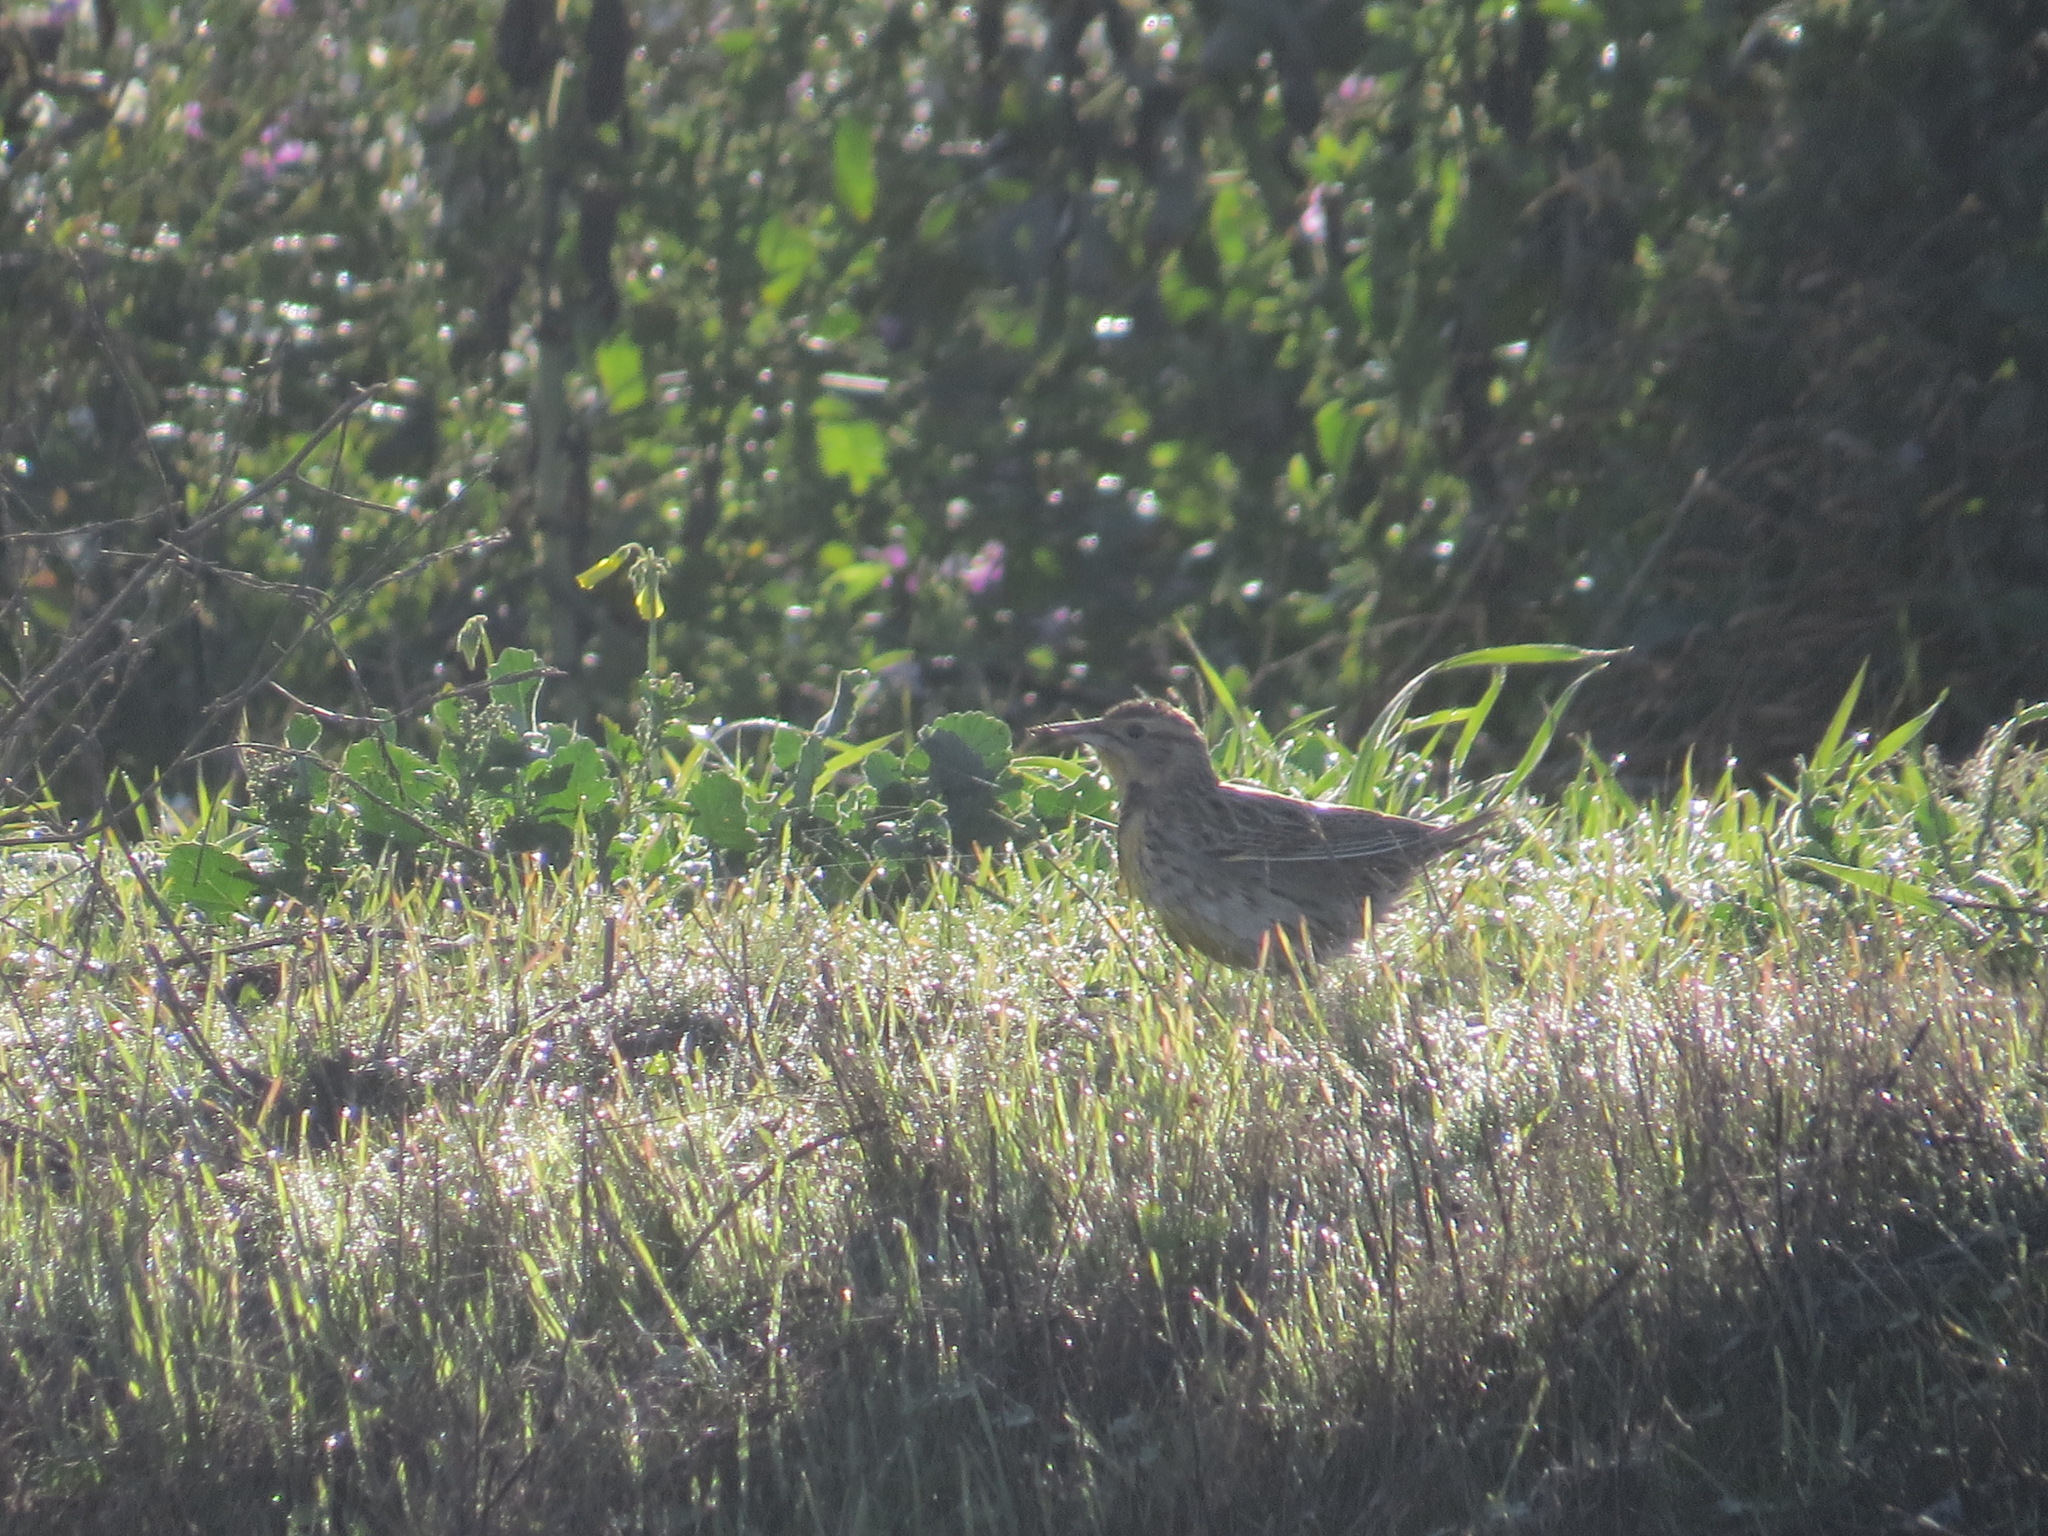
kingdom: Animalia
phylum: Chordata
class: Aves
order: Passeriformes
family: Icteridae
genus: Sturnella
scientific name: Sturnella neglecta
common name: Western meadowlark
